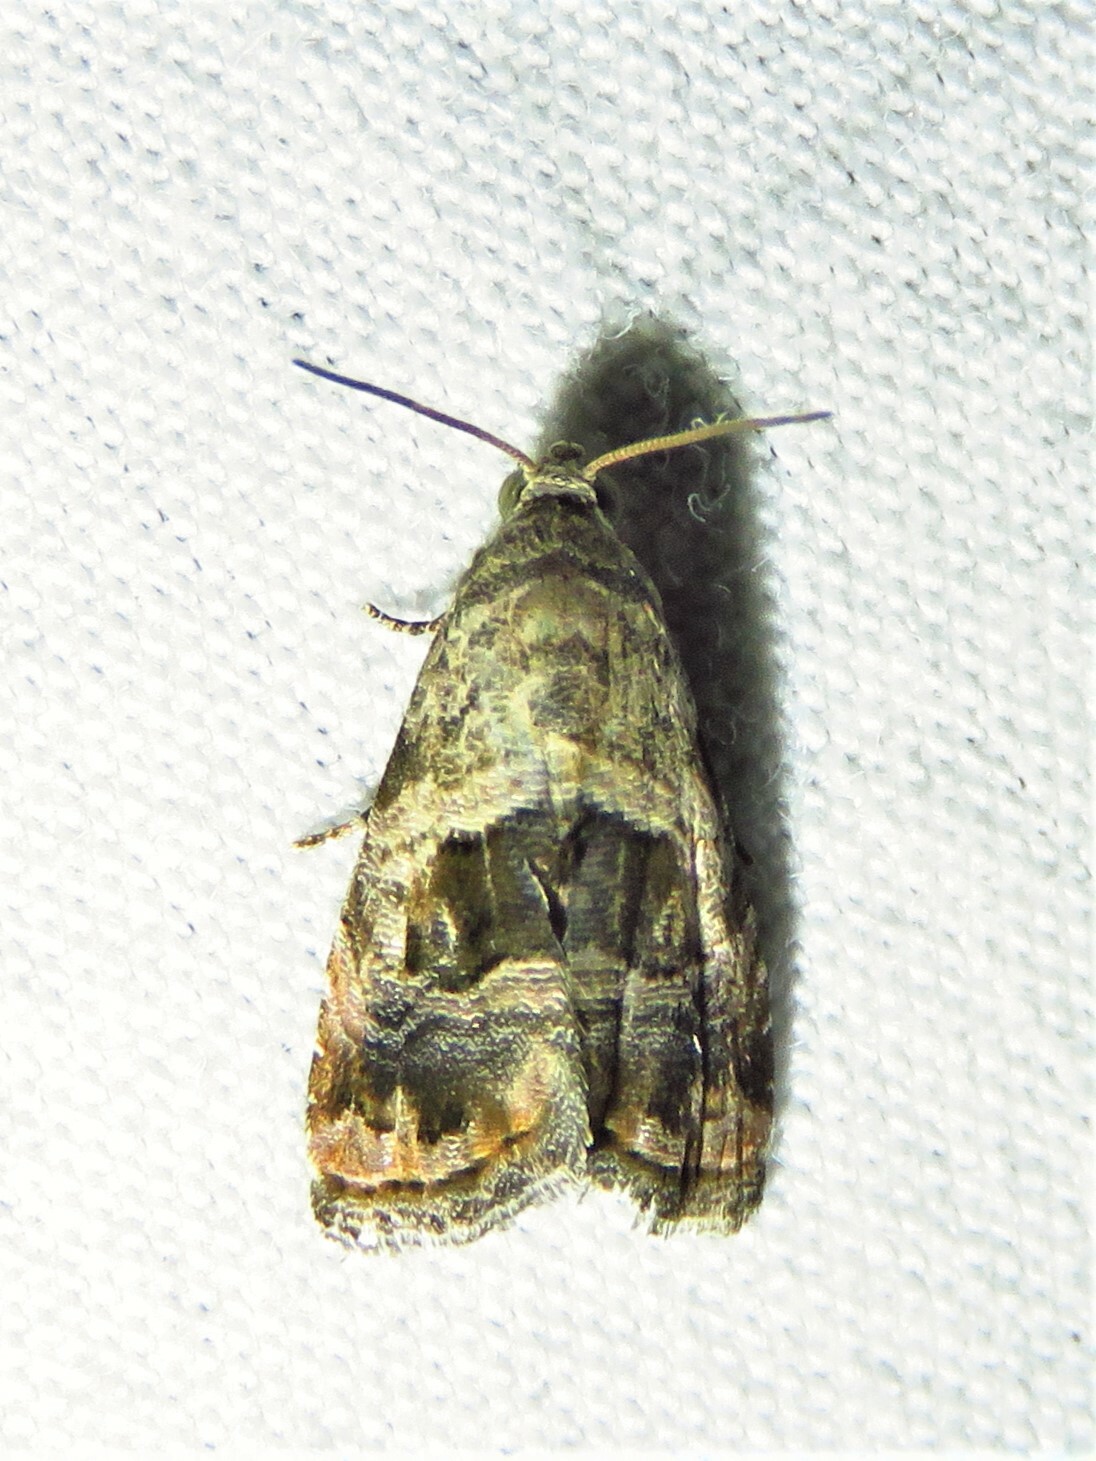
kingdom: Animalia
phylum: Arthropoda
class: Insecta
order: Lepidoptera
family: Noctuidae
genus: Tripudia
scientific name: Tripudia quadrifera
